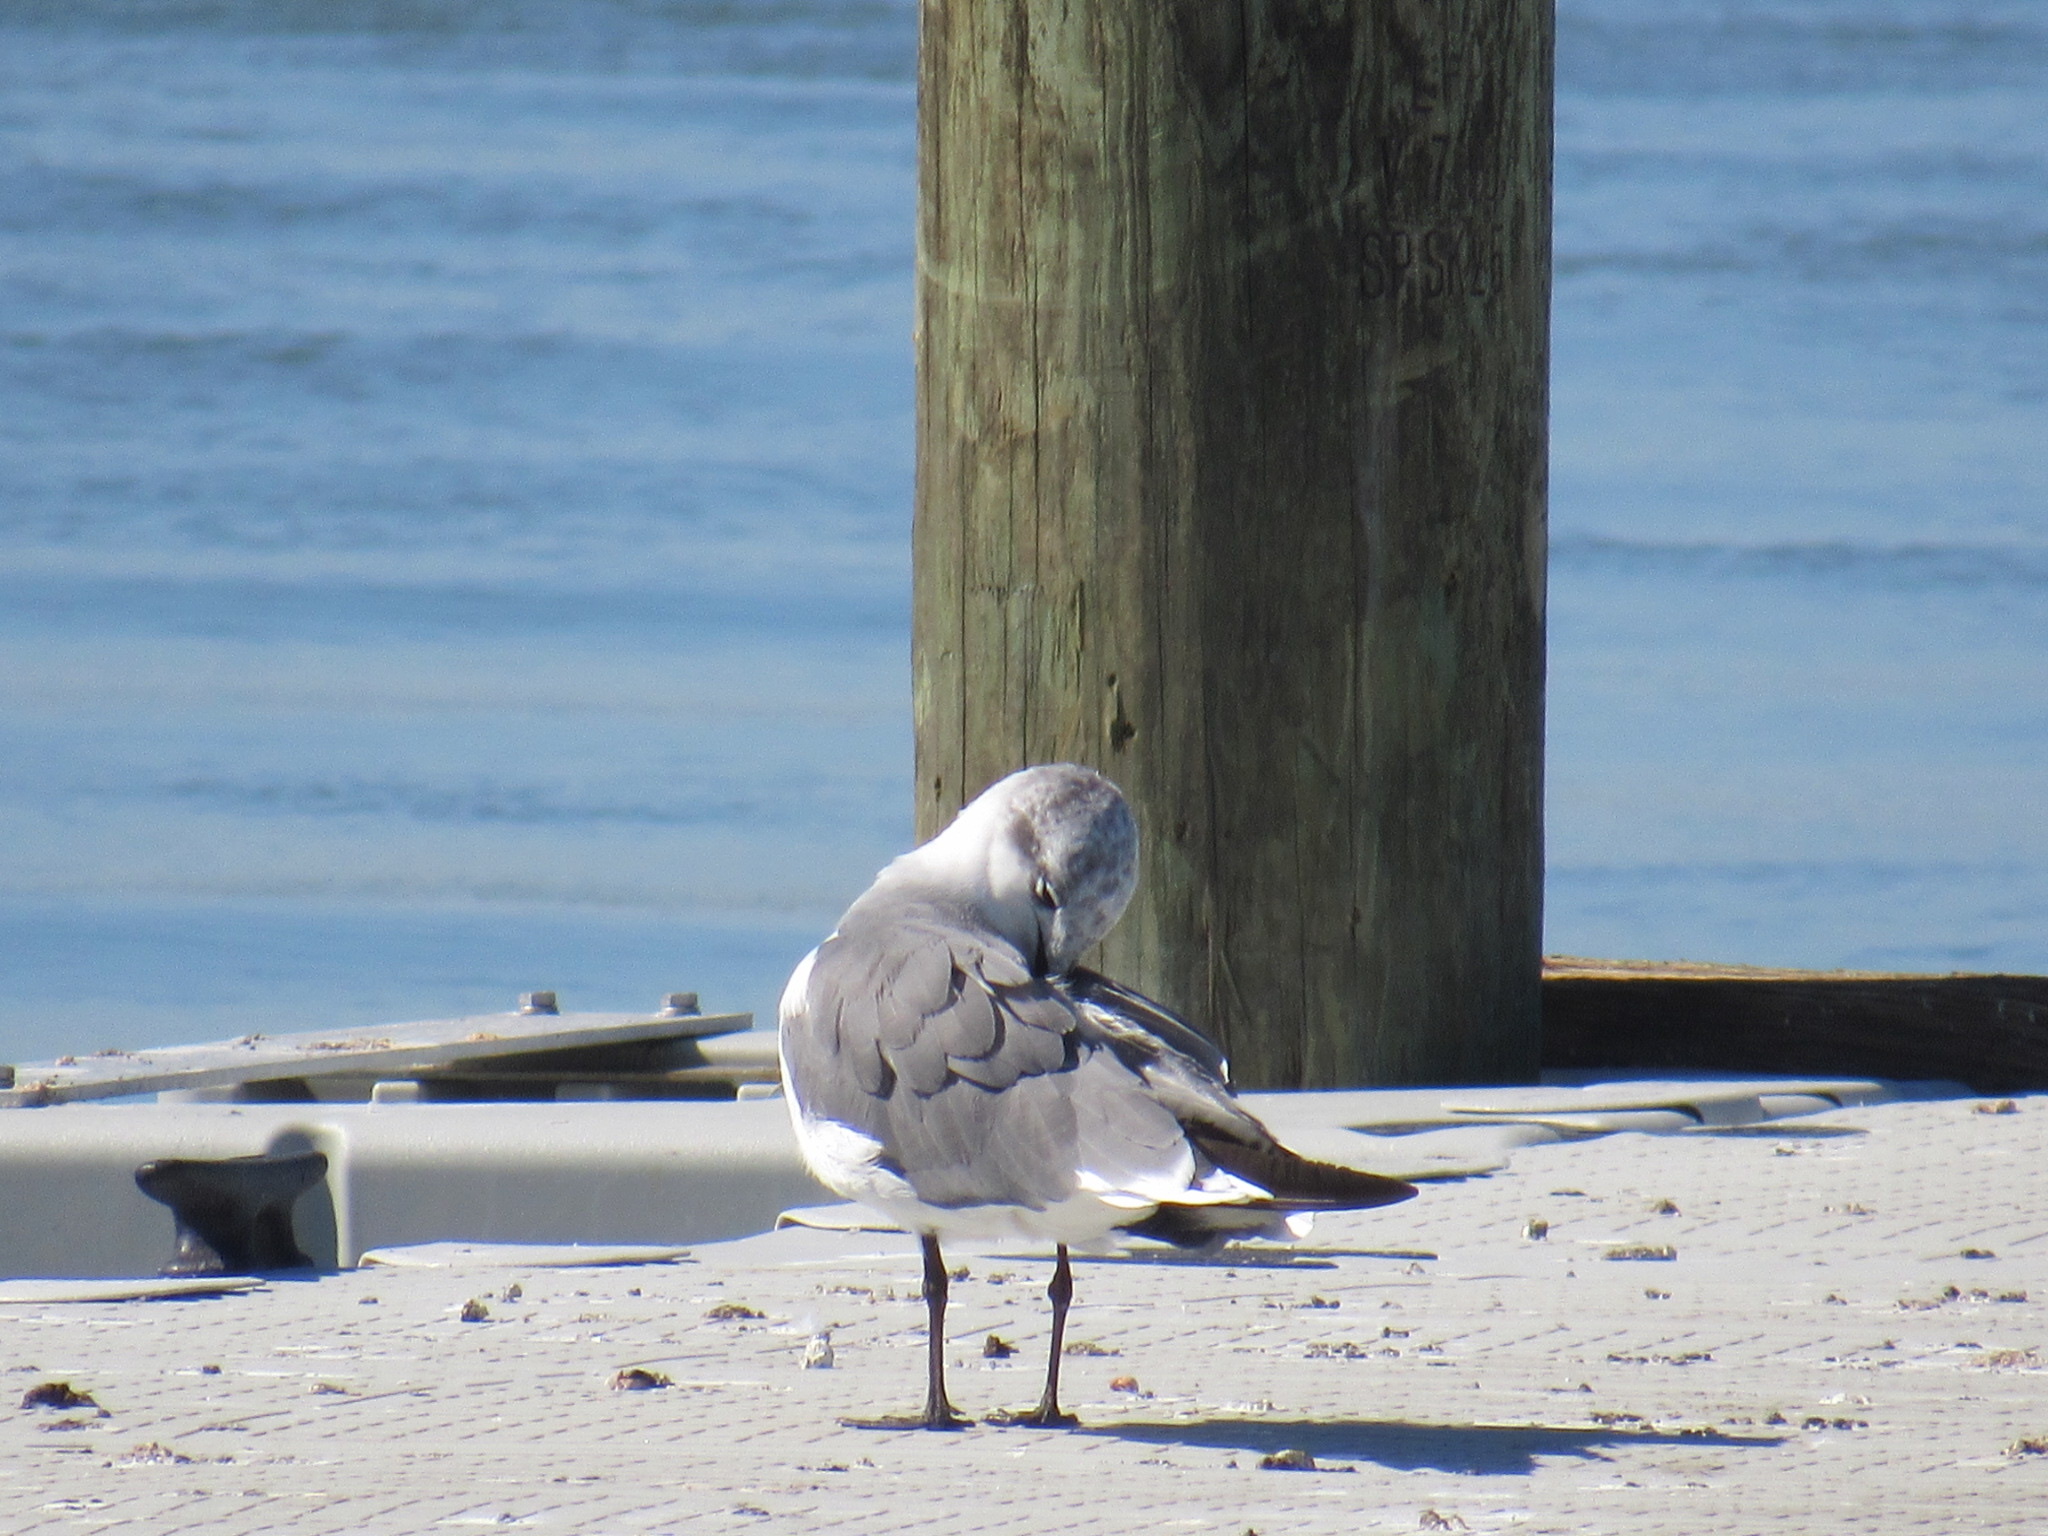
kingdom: Animalia
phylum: Chordata
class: Aves
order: Charadriiformes
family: Laridae
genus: Leucophaeus
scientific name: Leucophaeus atricilla
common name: Laughing gull
